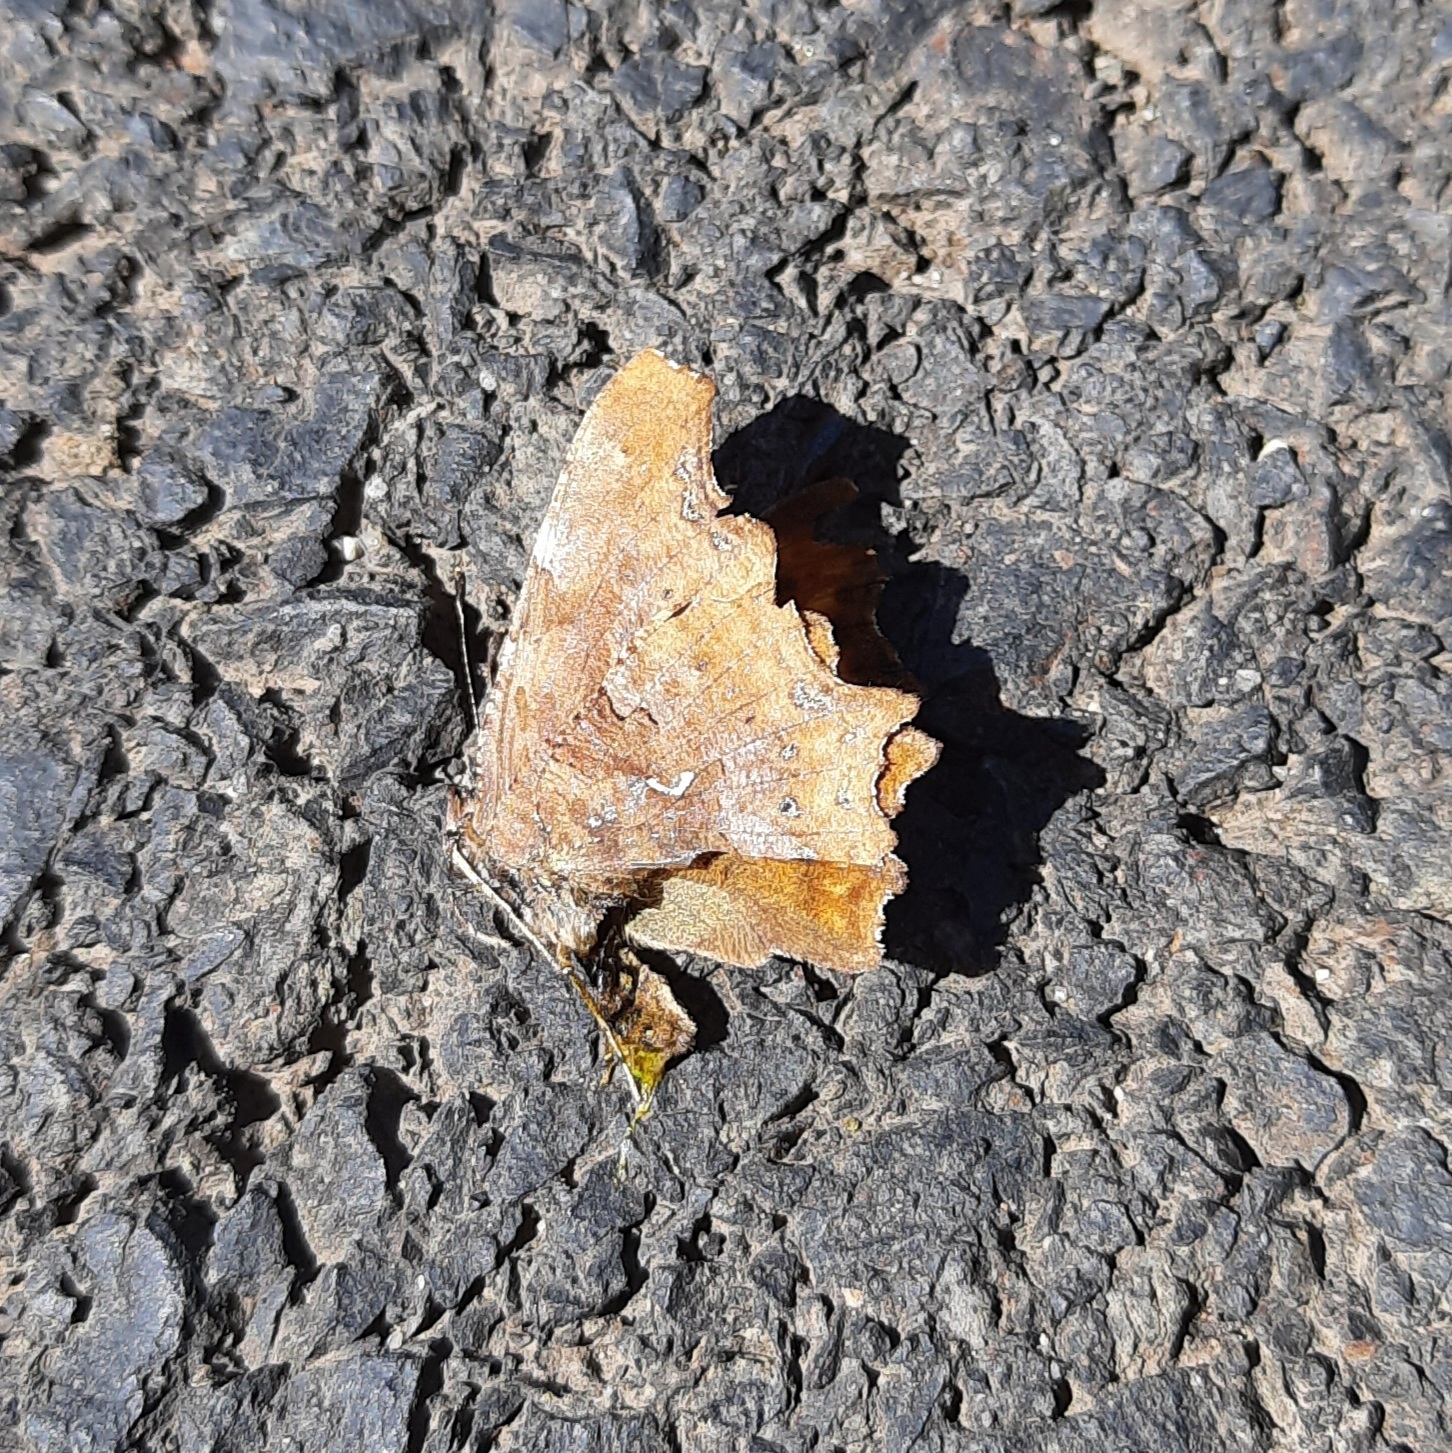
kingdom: Animalia
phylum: Arthropoda
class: Insecta
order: Lepidoptera
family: Nymphalidae
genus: Polygonia
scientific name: Polygonia c-album
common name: Comma
